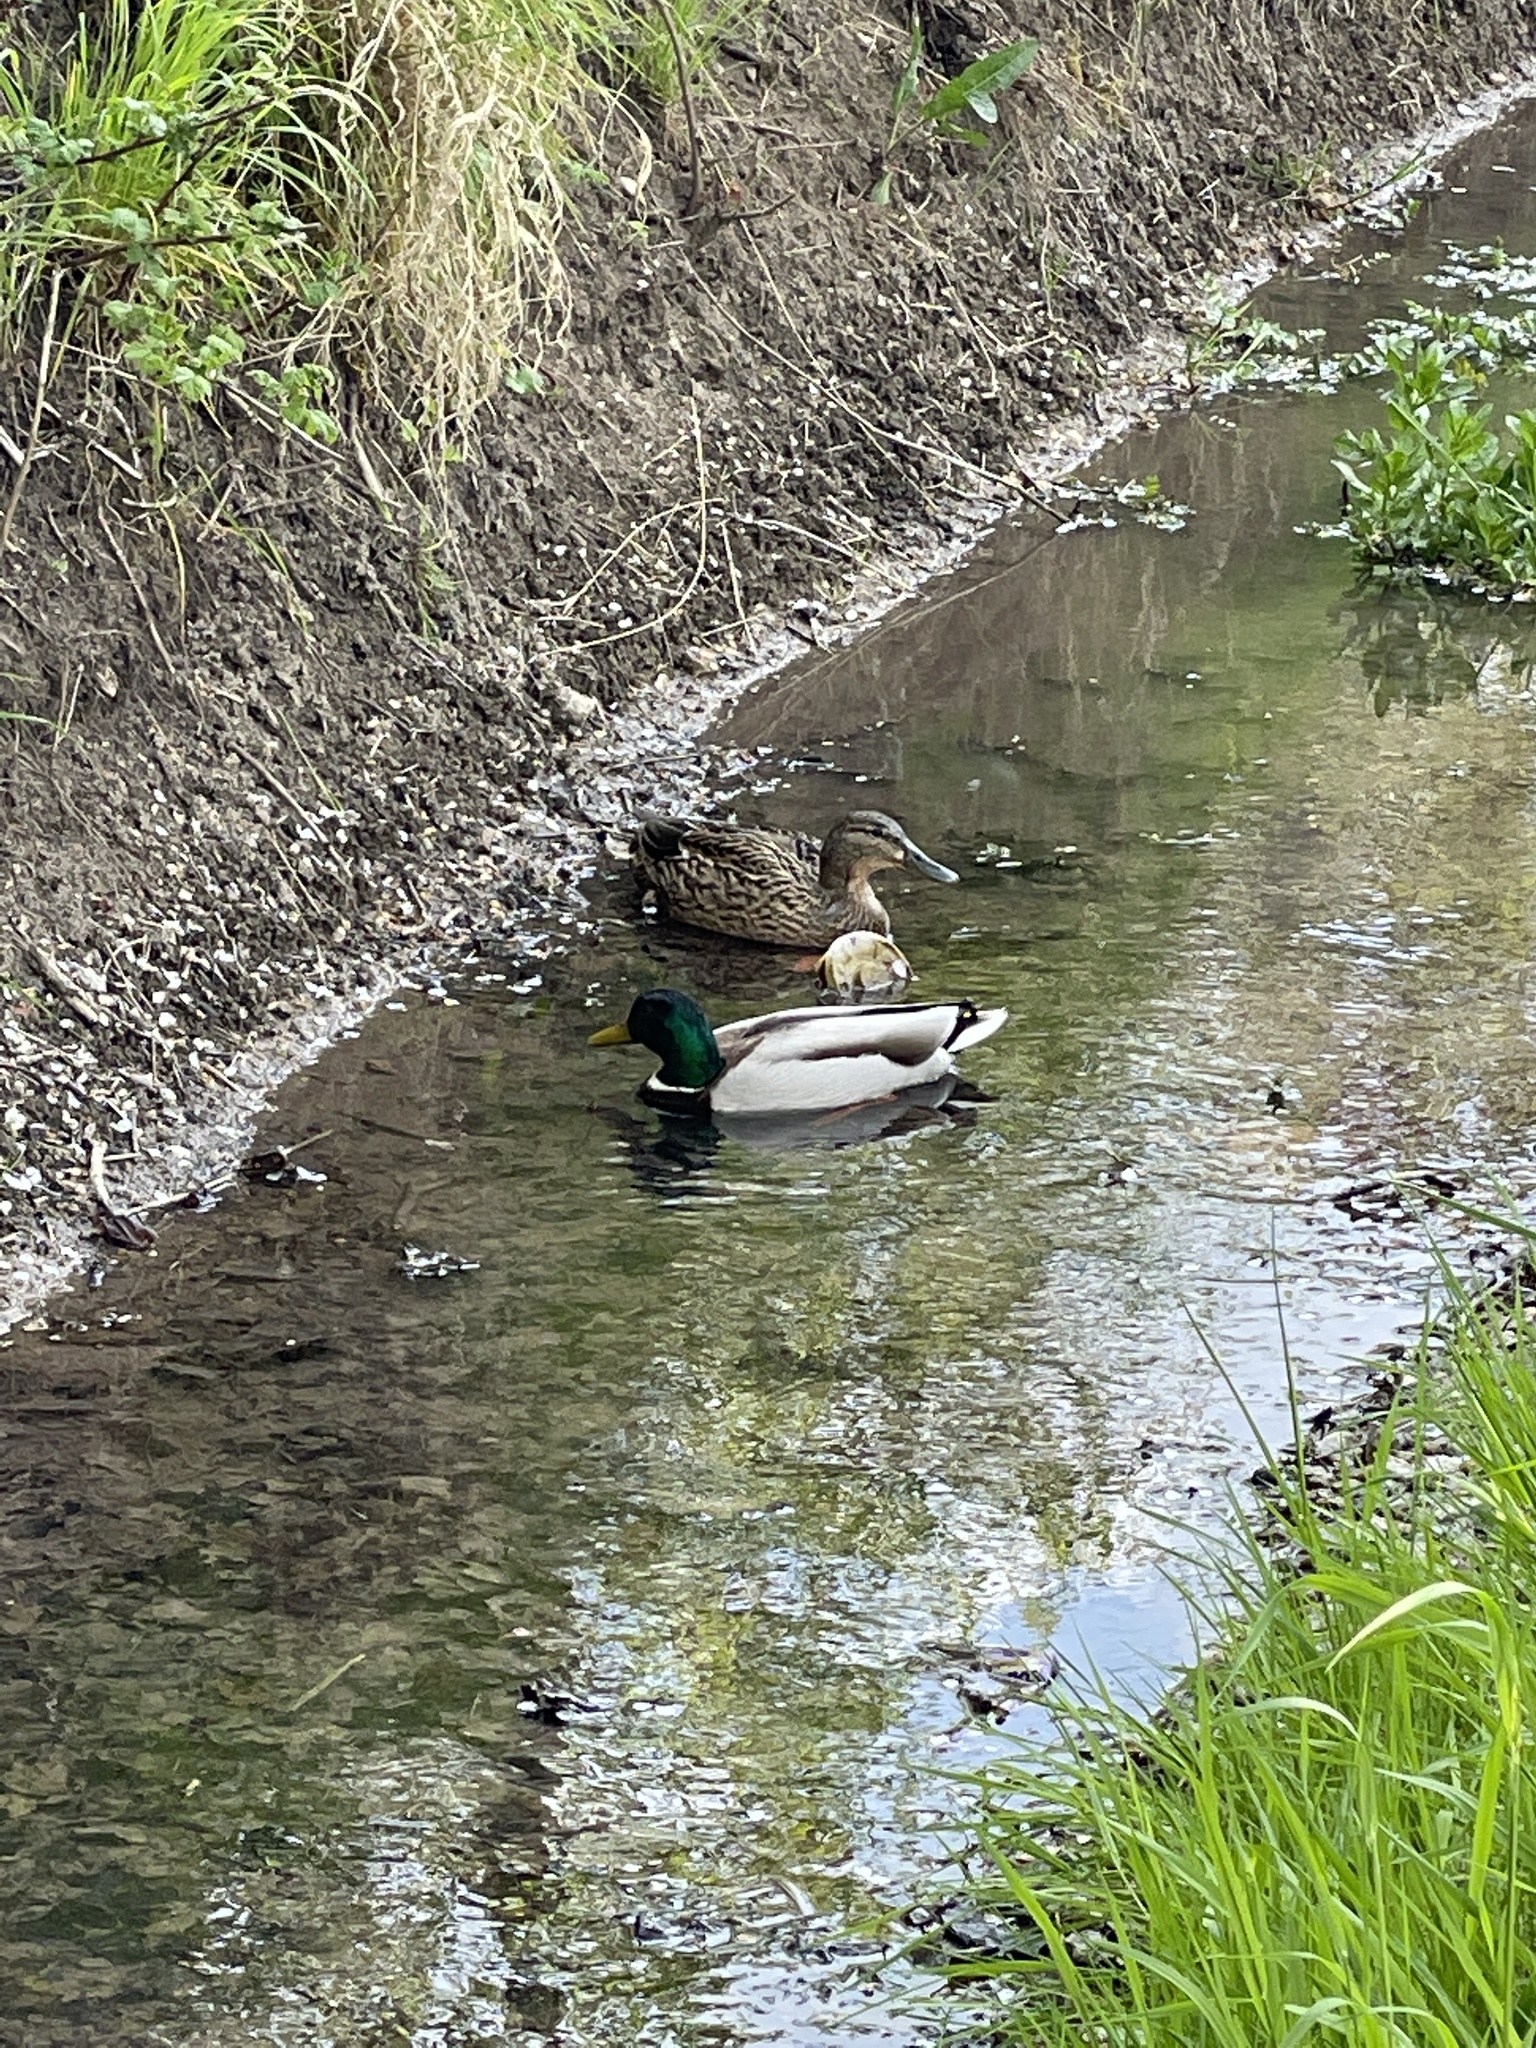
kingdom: Animalia
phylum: Chordata
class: Aves
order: Anseriformes
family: Anatidae
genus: Anas
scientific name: Anas platyrhynchos
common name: Mallard
